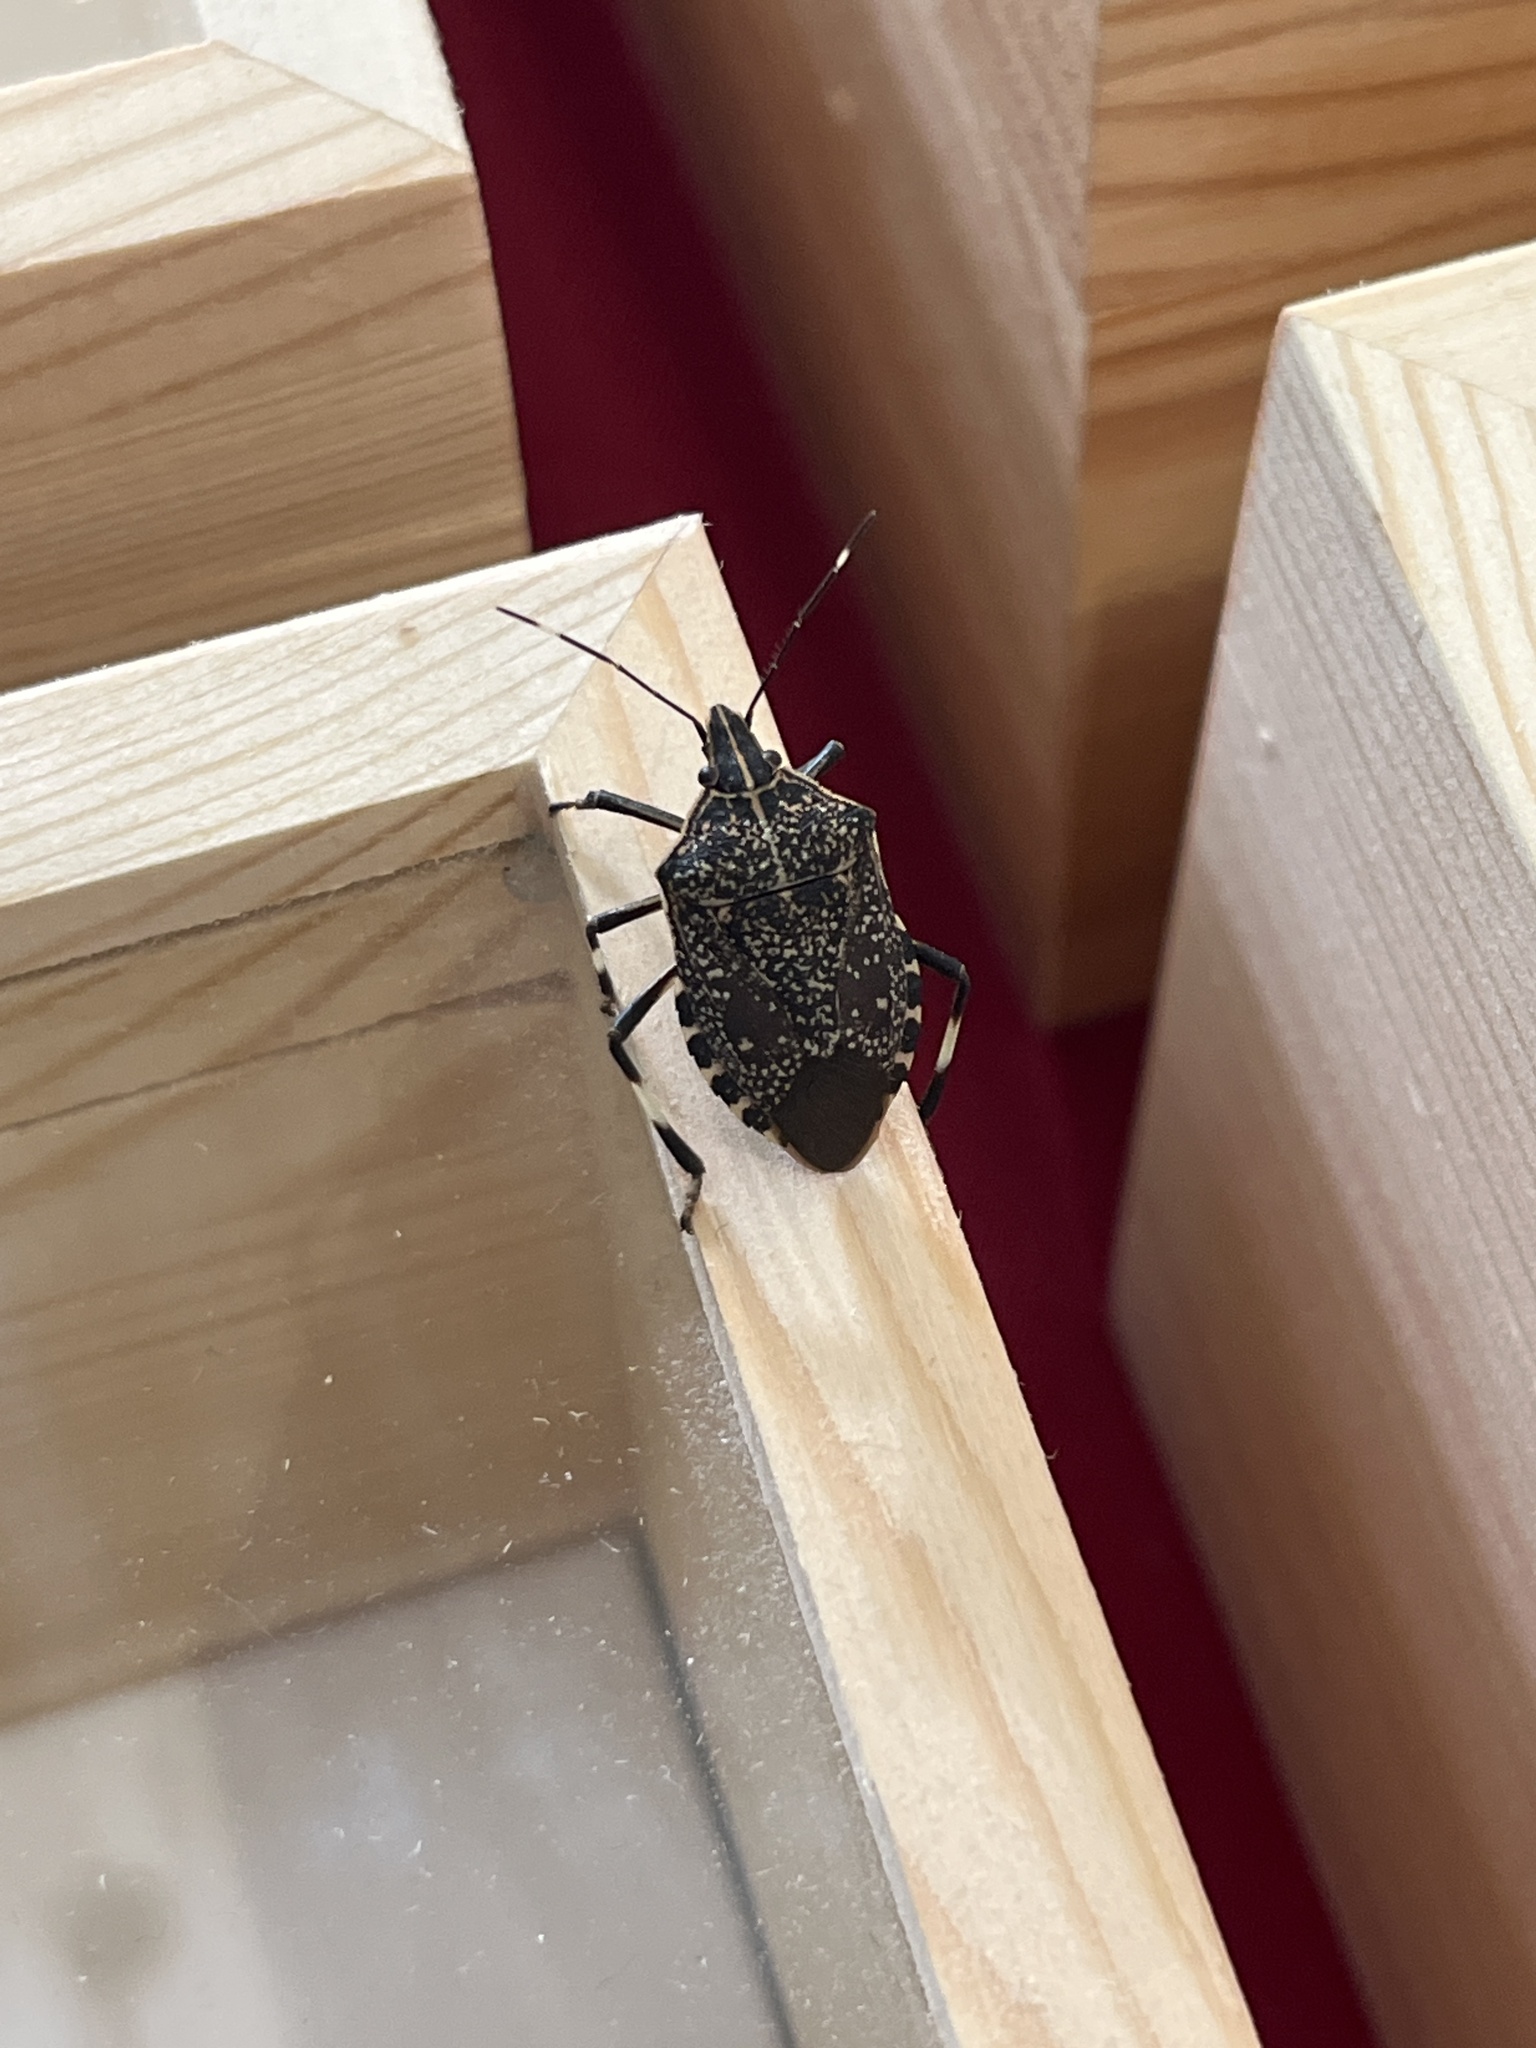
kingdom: Animalia
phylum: Arthropoda
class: Insecta
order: Hemiptera
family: Pentatomidae
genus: Erthesina
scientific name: Erthesina fullo
